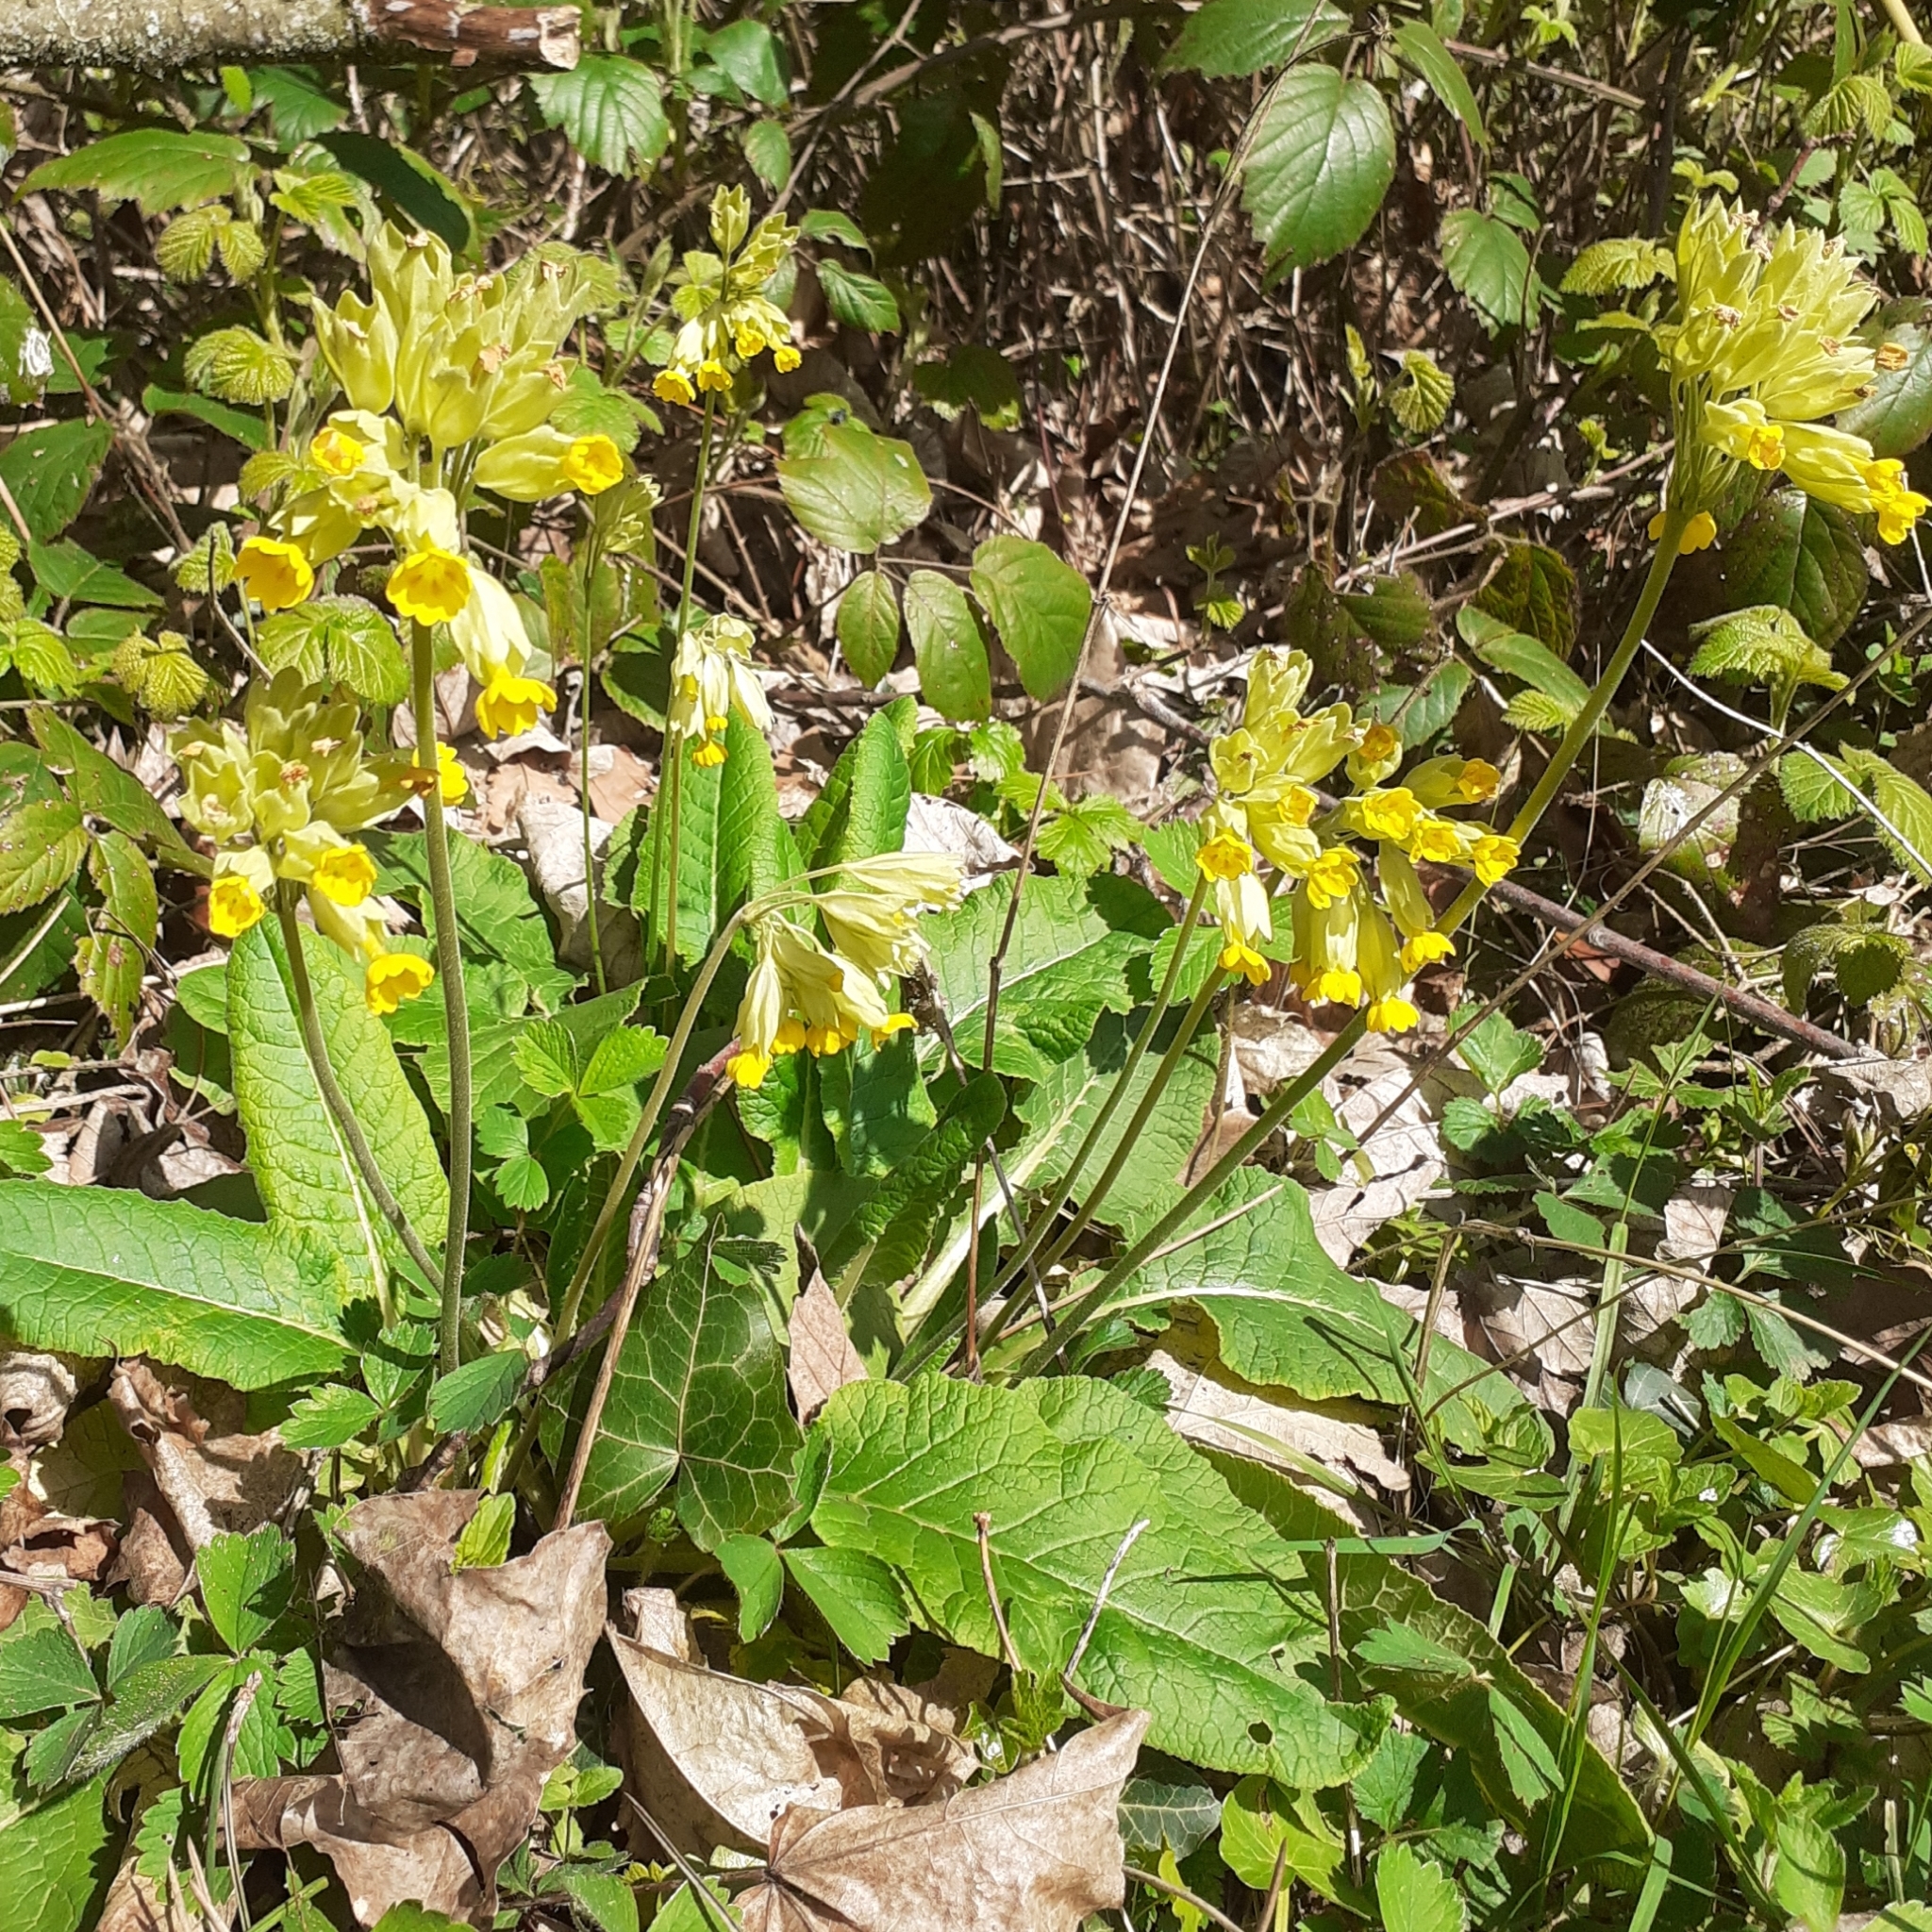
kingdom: Plantae
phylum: Tracheophyta
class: Magnoliopsida
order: Ericales
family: Primulaceae
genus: Primula
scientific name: Primula veris
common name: Cowslip
